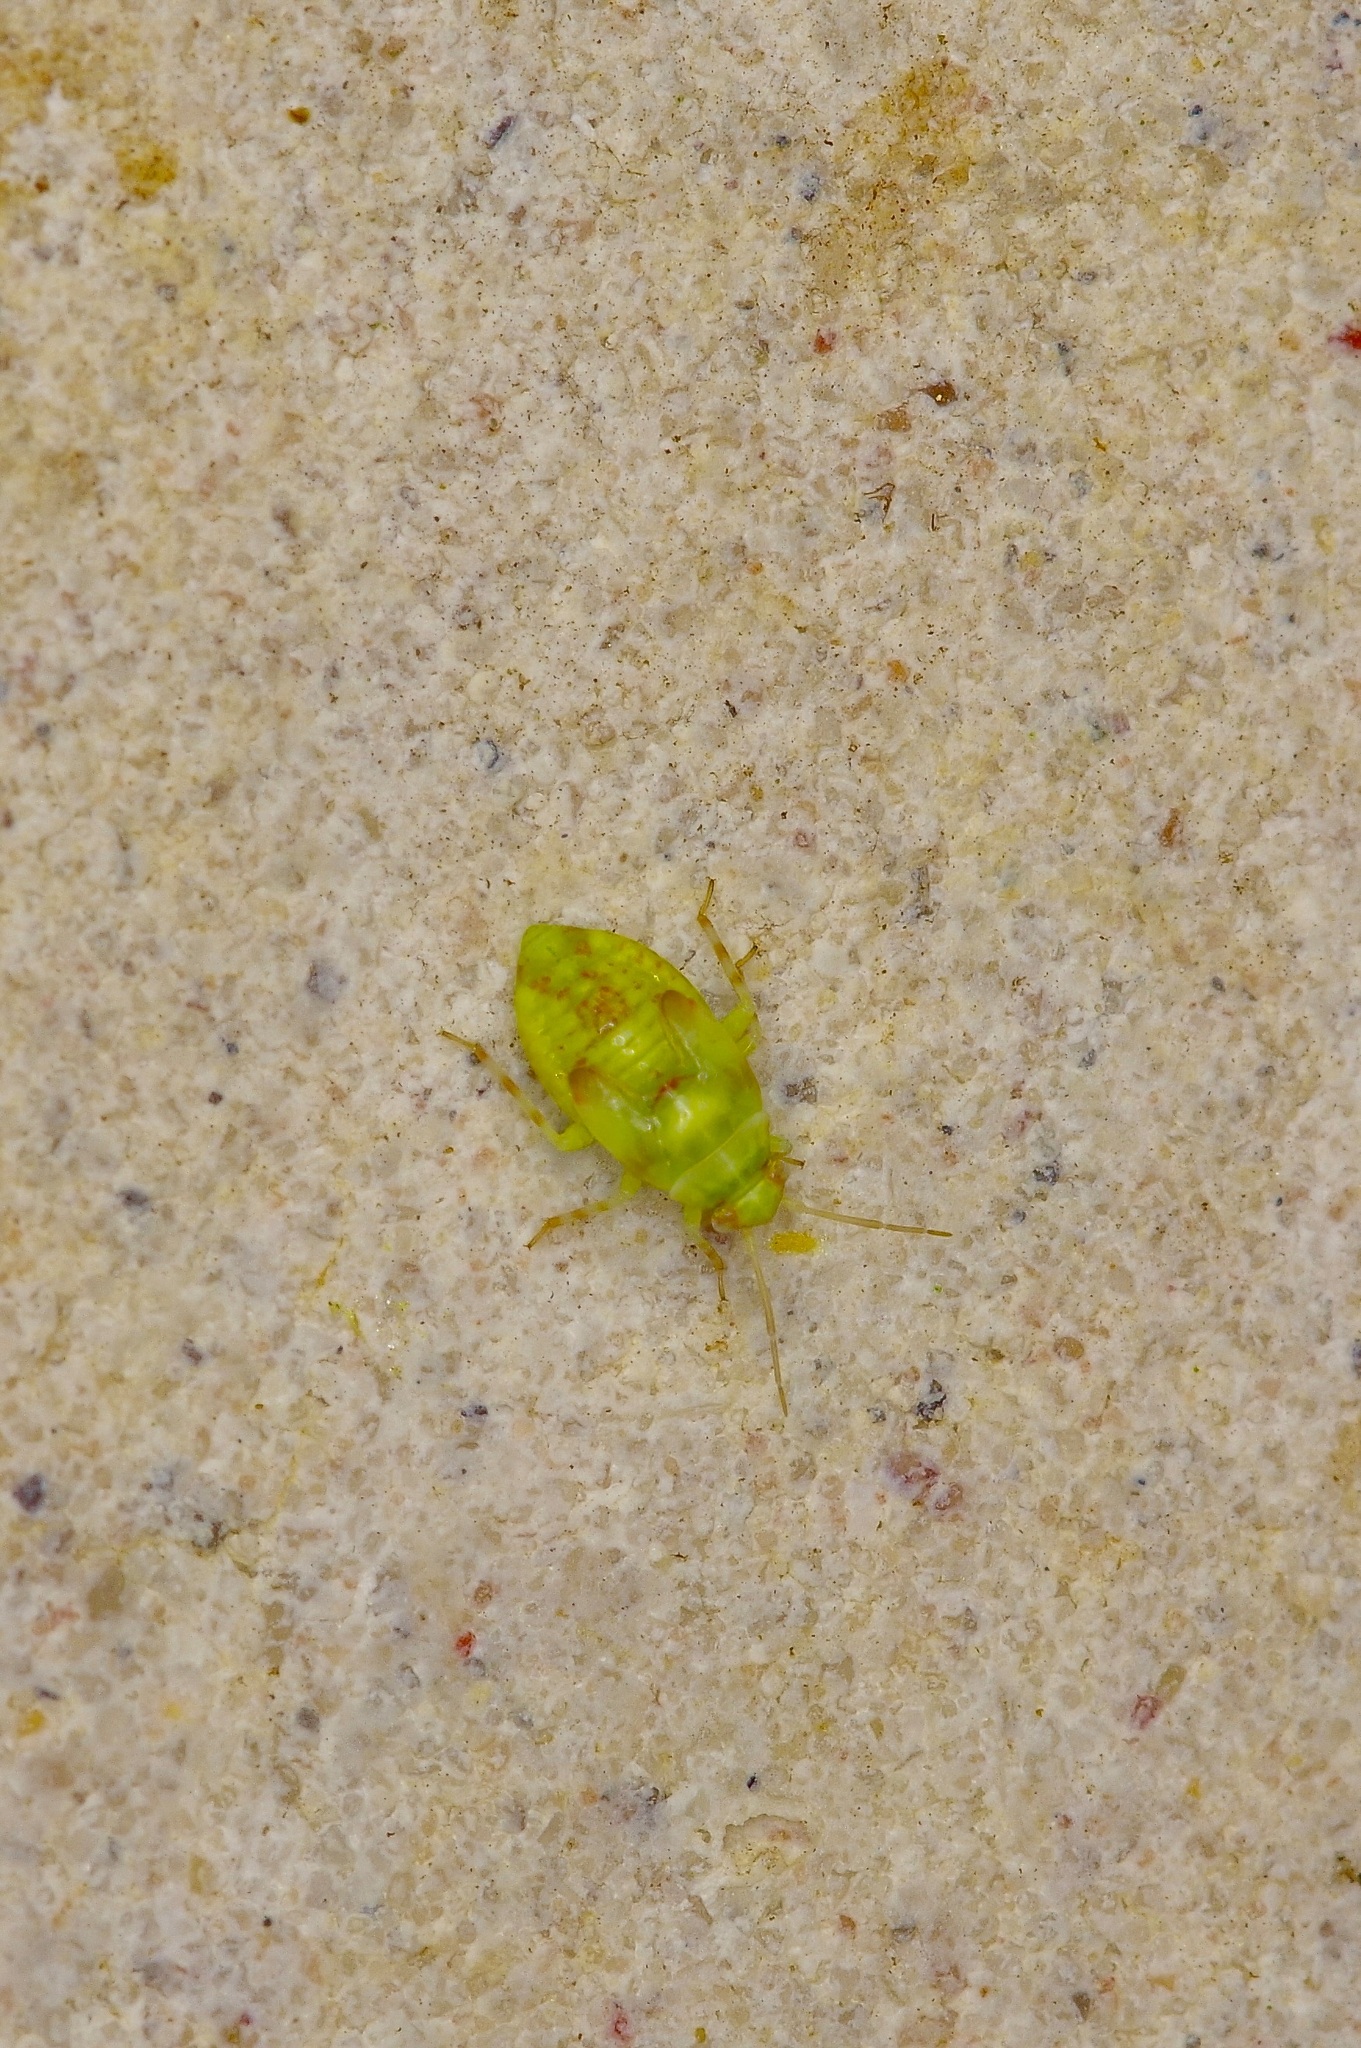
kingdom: Animalia
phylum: Arthropoda
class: Insecta
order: Hemiptera
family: Miridae
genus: Tropidosteptes
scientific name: Tropidosteptes quercicola
